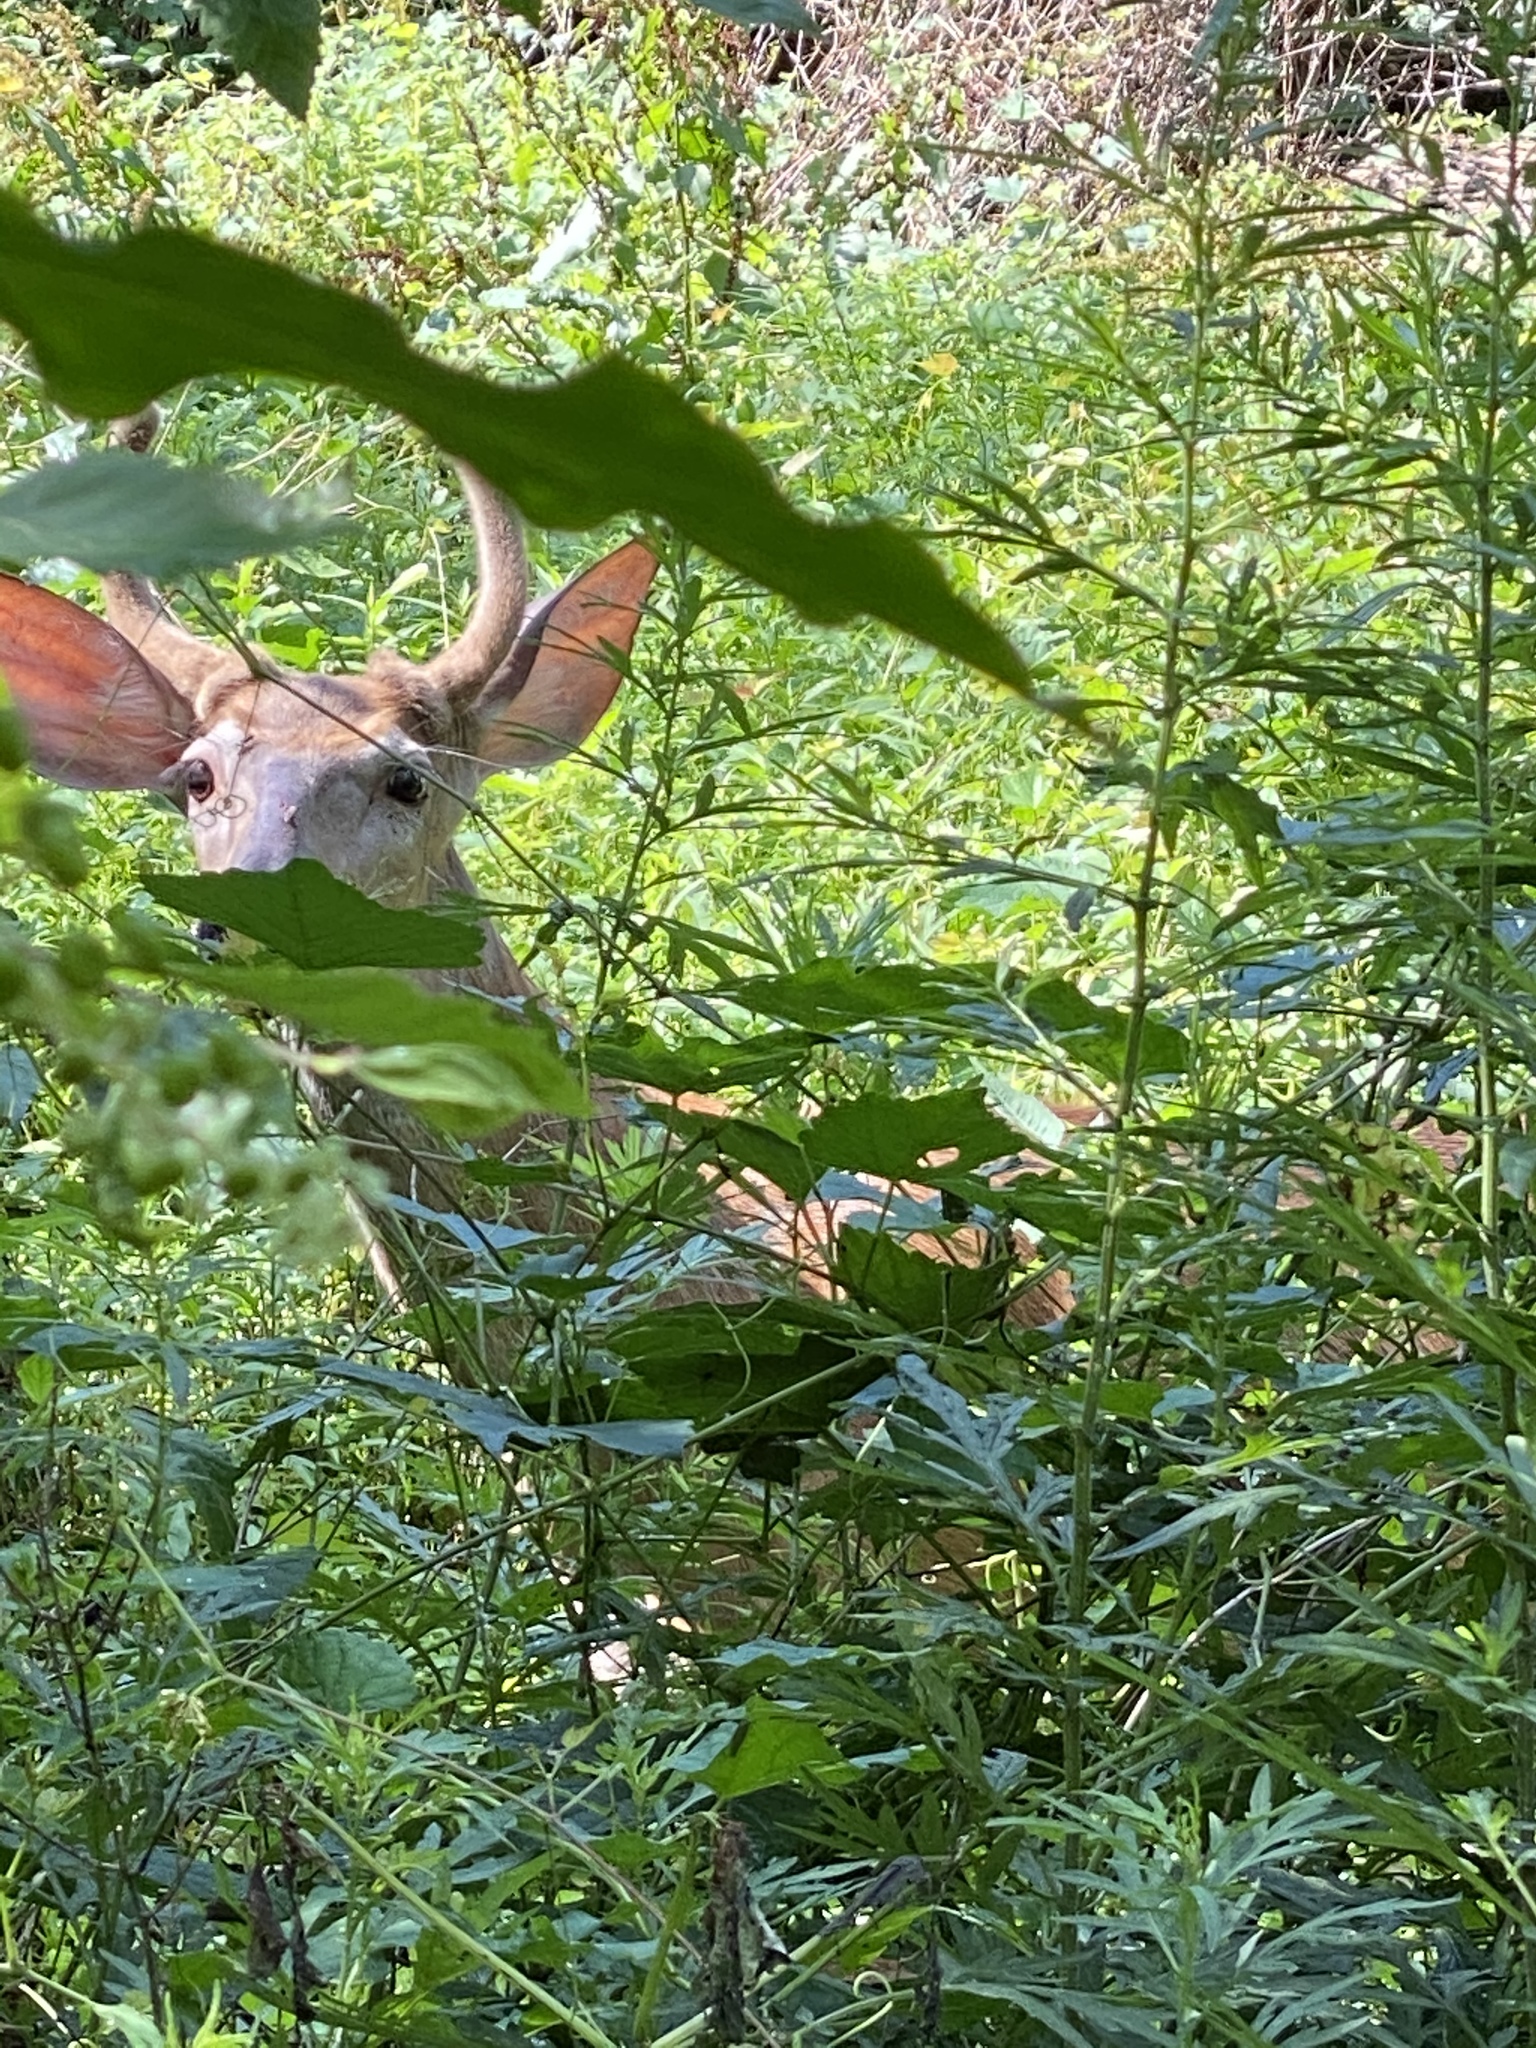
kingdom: Animalia
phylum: Chordata
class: Mammalia
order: Artiodactyla
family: Cervidae
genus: Odocoileus
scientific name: Odocoileus virginianus
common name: White-tailed deer
